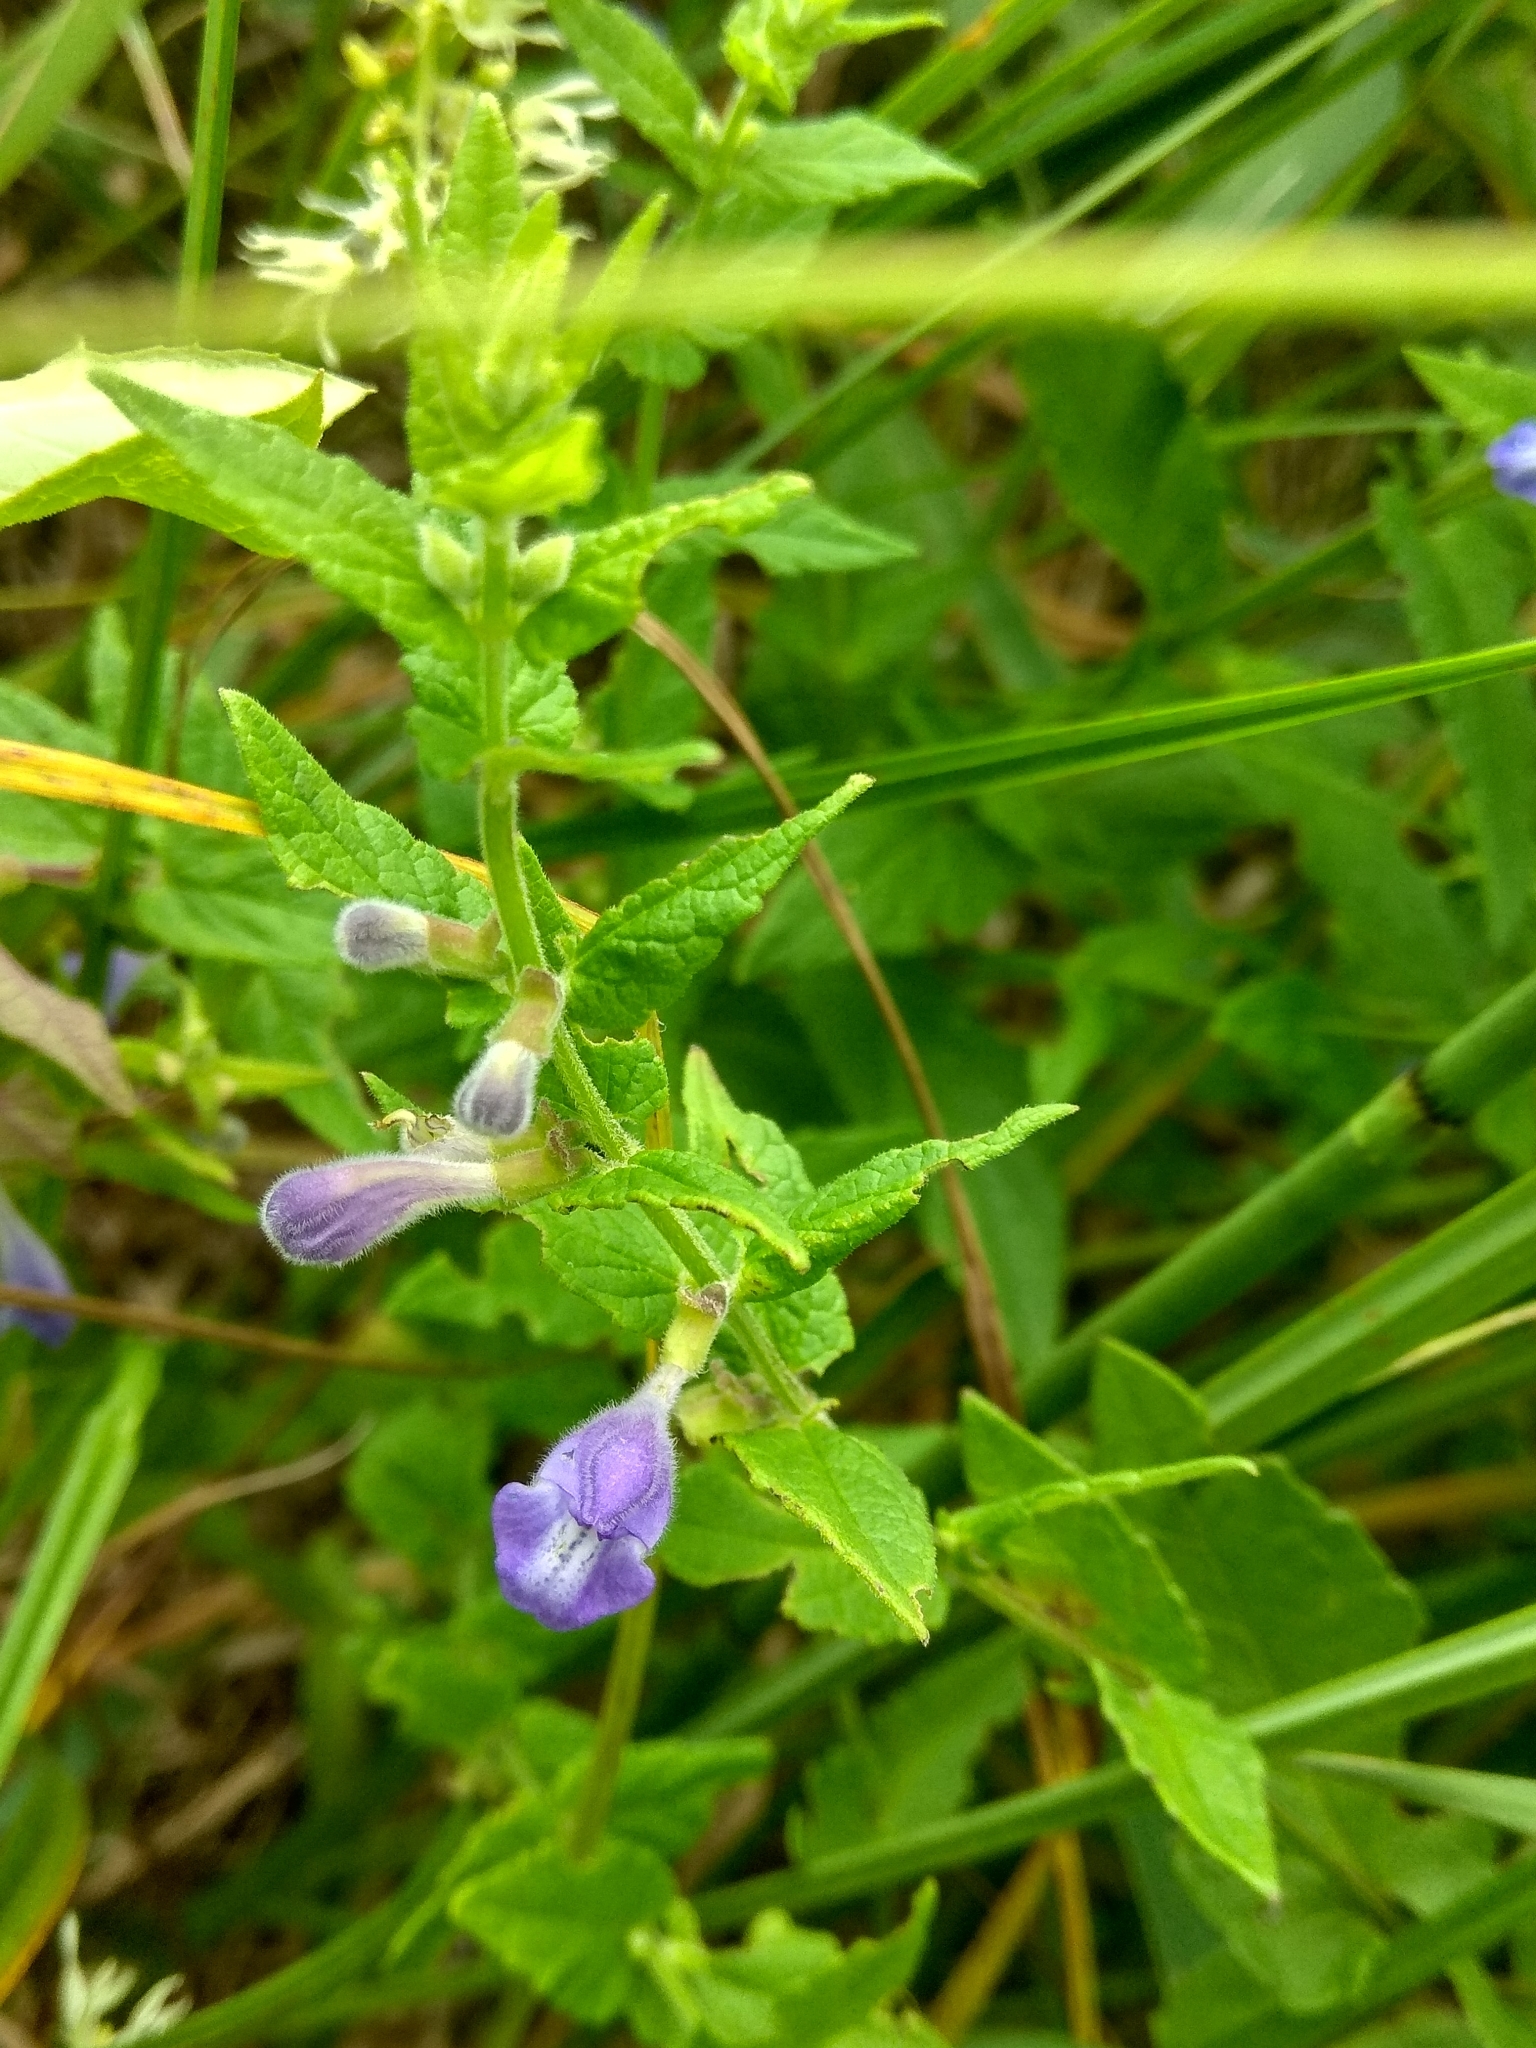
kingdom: Plantae
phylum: Tracheophyta
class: Magnoliopsida
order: Lamiales
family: Lamiaceae
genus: Scutellaria
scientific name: Scutellaria galericulata
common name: Skullcap
